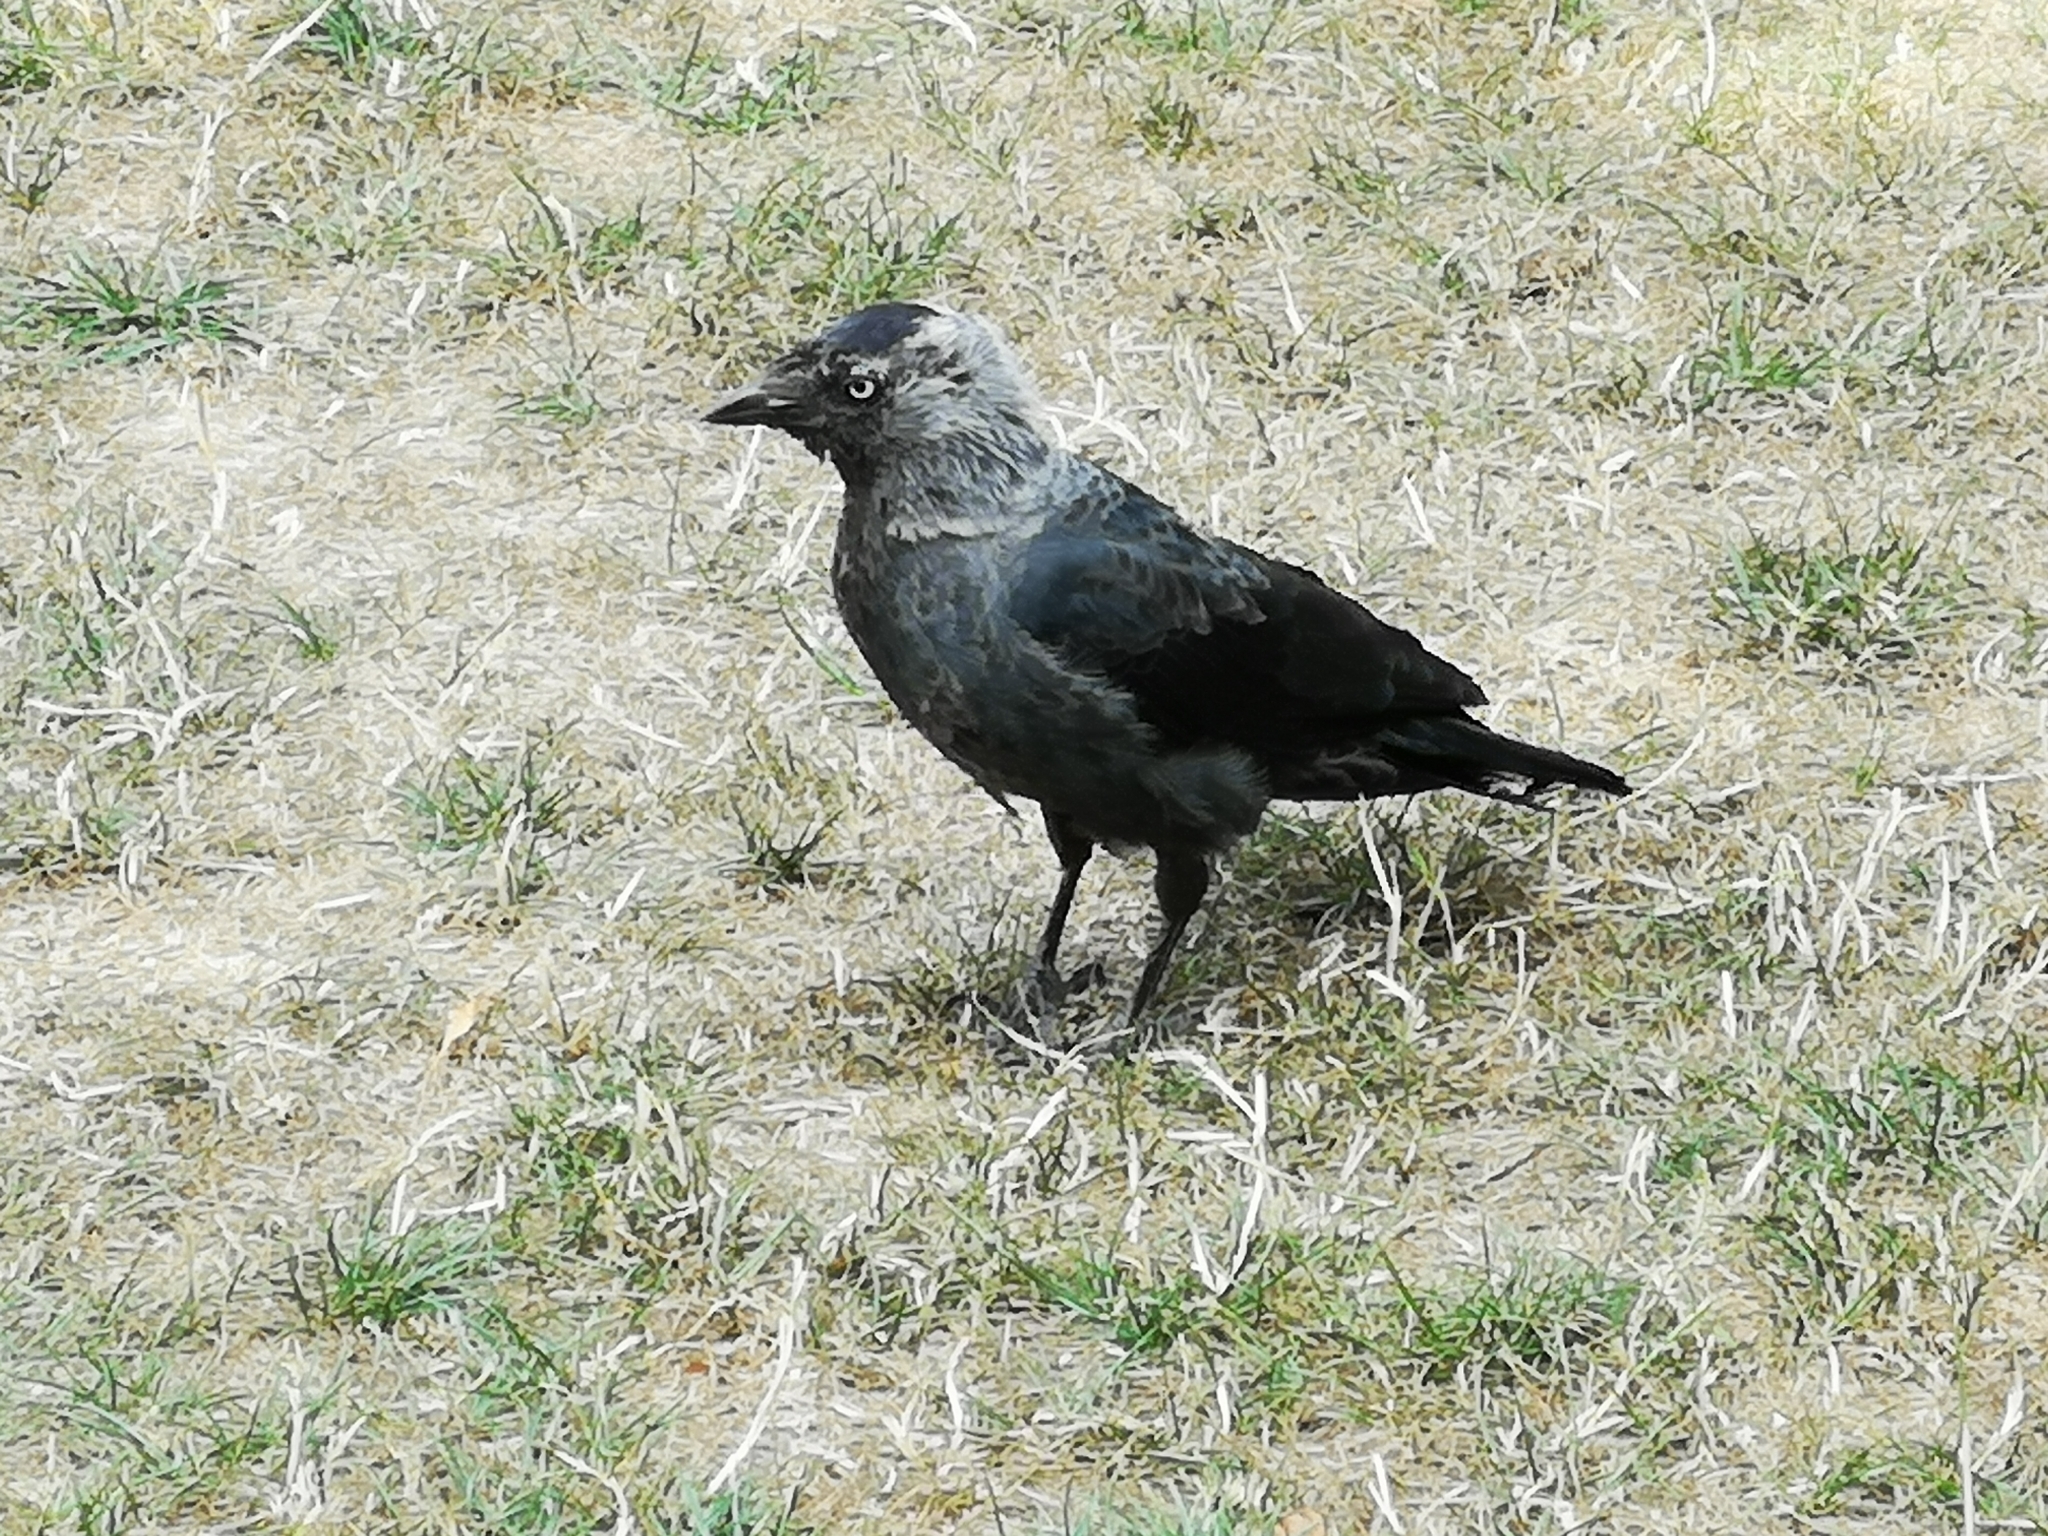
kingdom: Animalia
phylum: Chordata
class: Aves
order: Passeriformes
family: Corvidae
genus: Coloeus
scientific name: Coloeus monedula
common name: Western jackdaw
